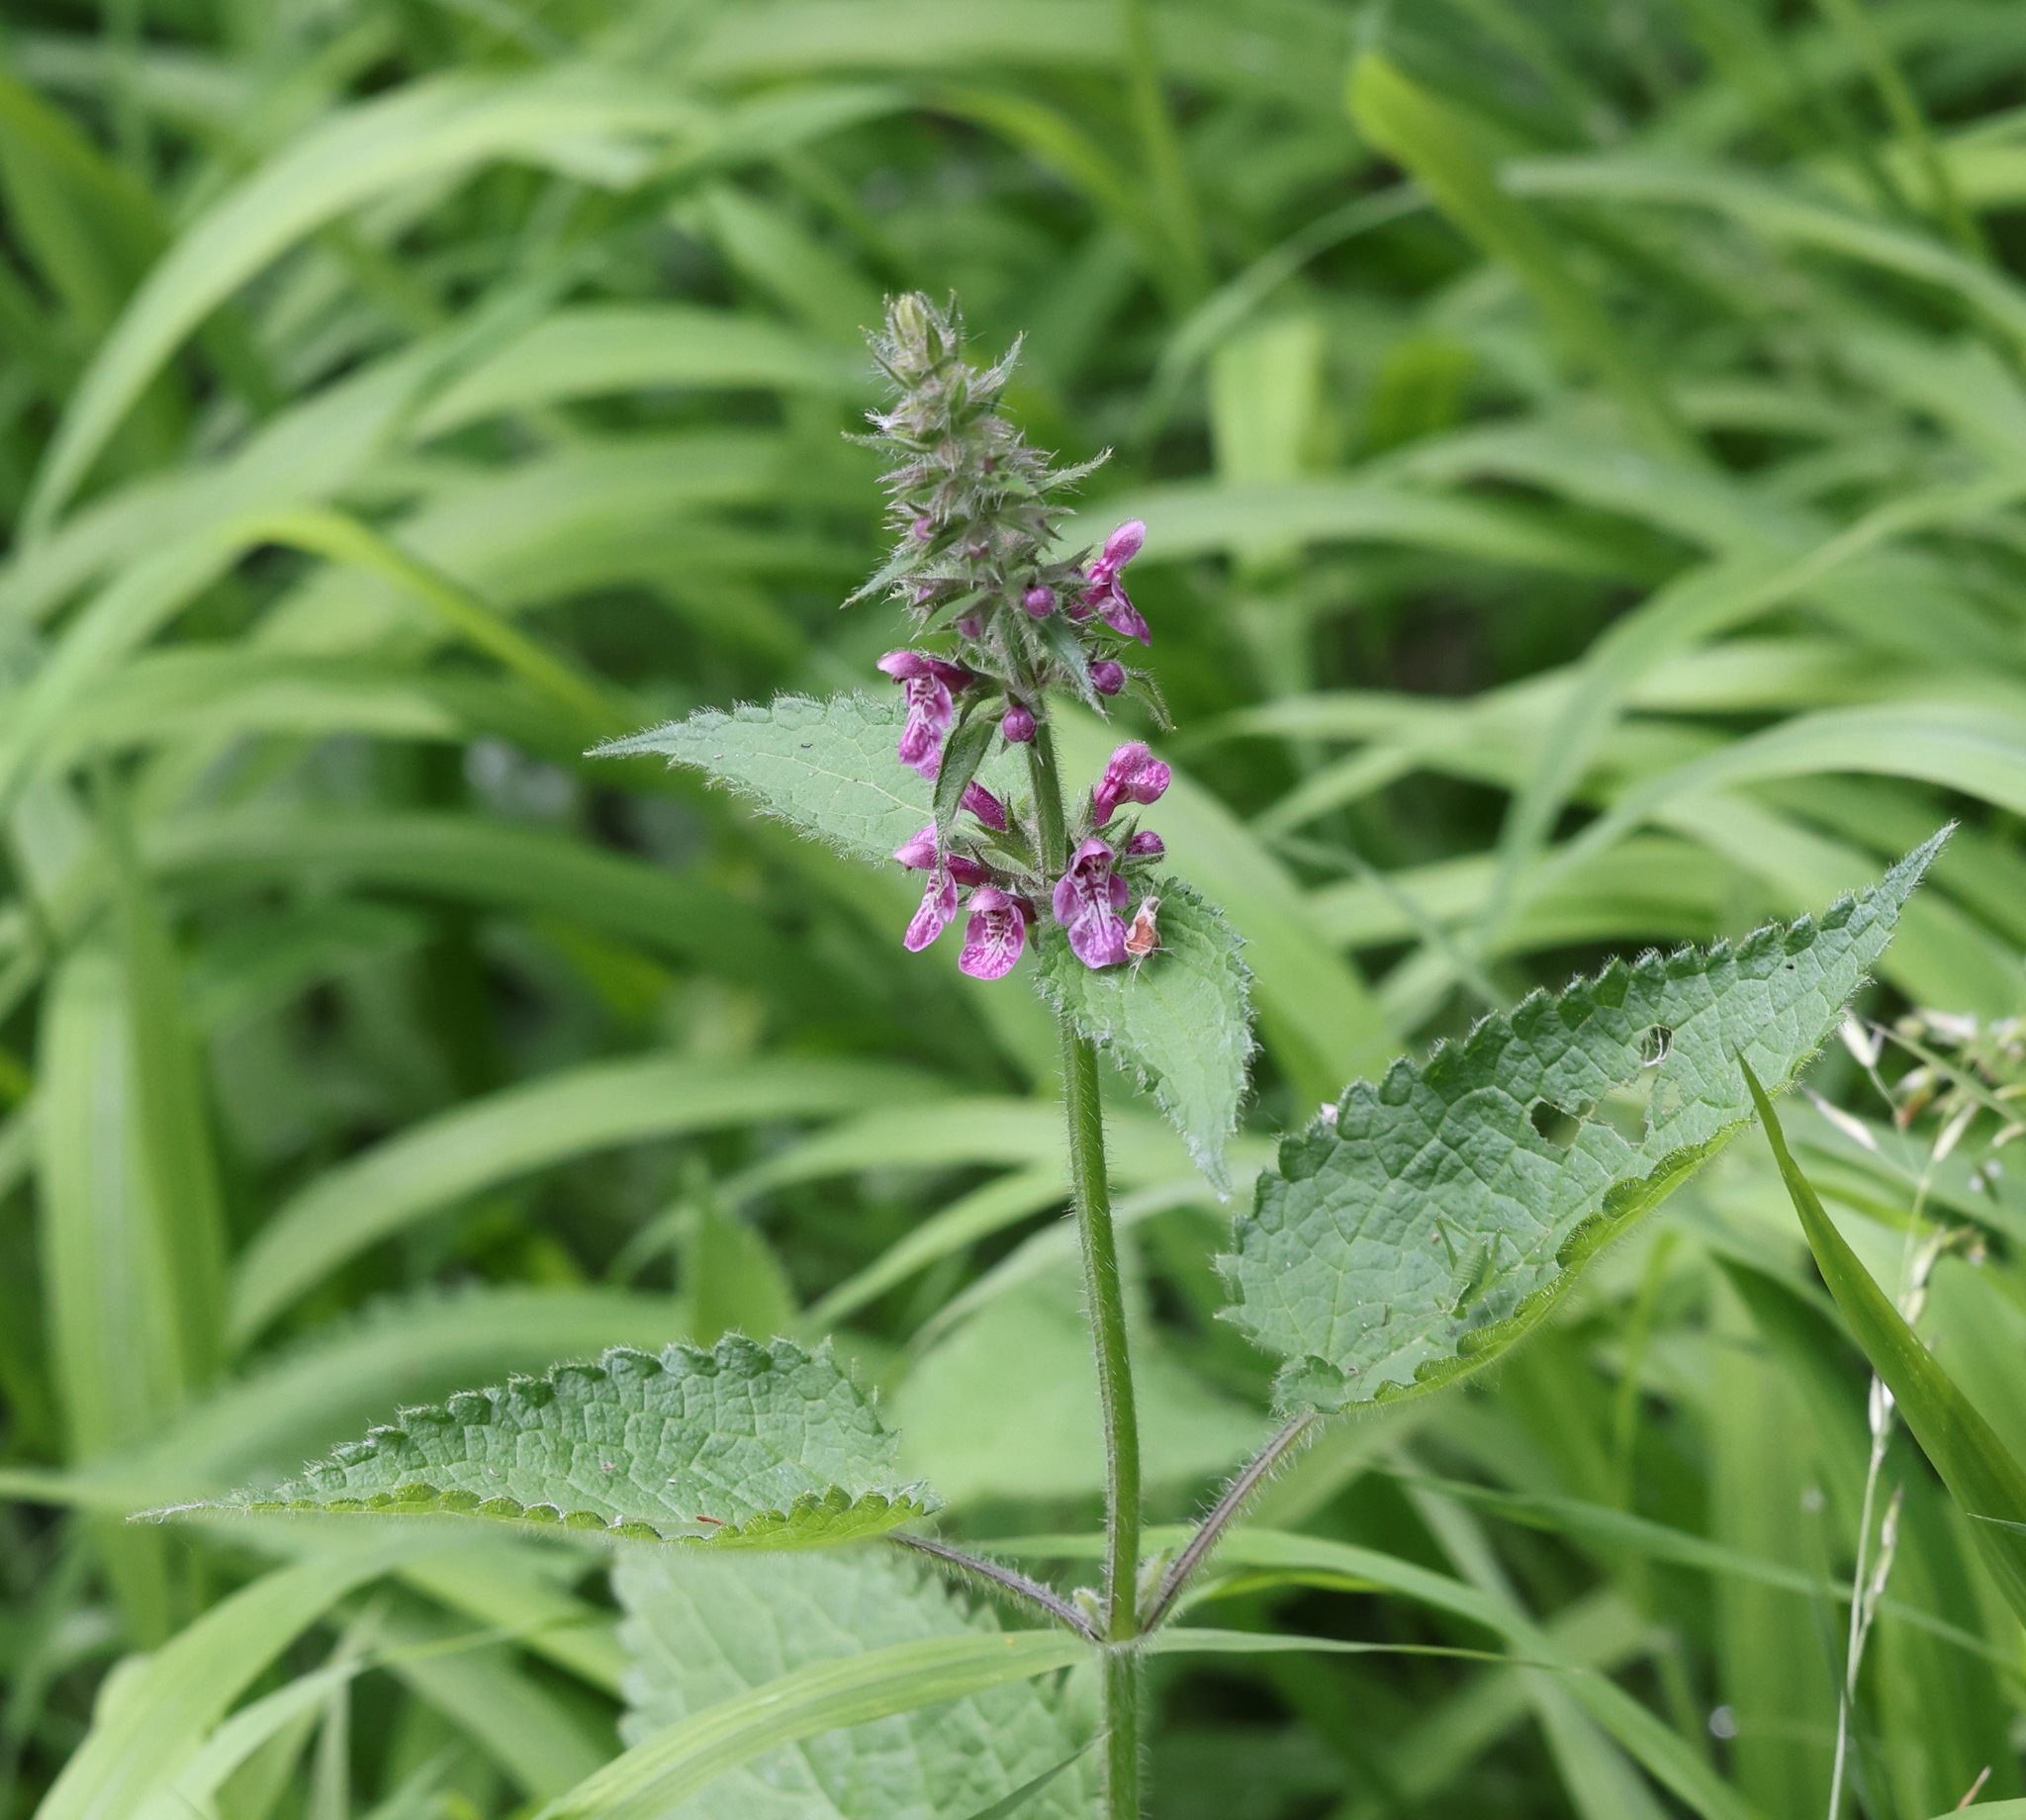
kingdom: Plantae
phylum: Tracheophyta
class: Magnoliopsida
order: Lamiales
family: Lamiaceae
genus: Stachys
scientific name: Stachys sylvatica
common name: Hedge woundwort
